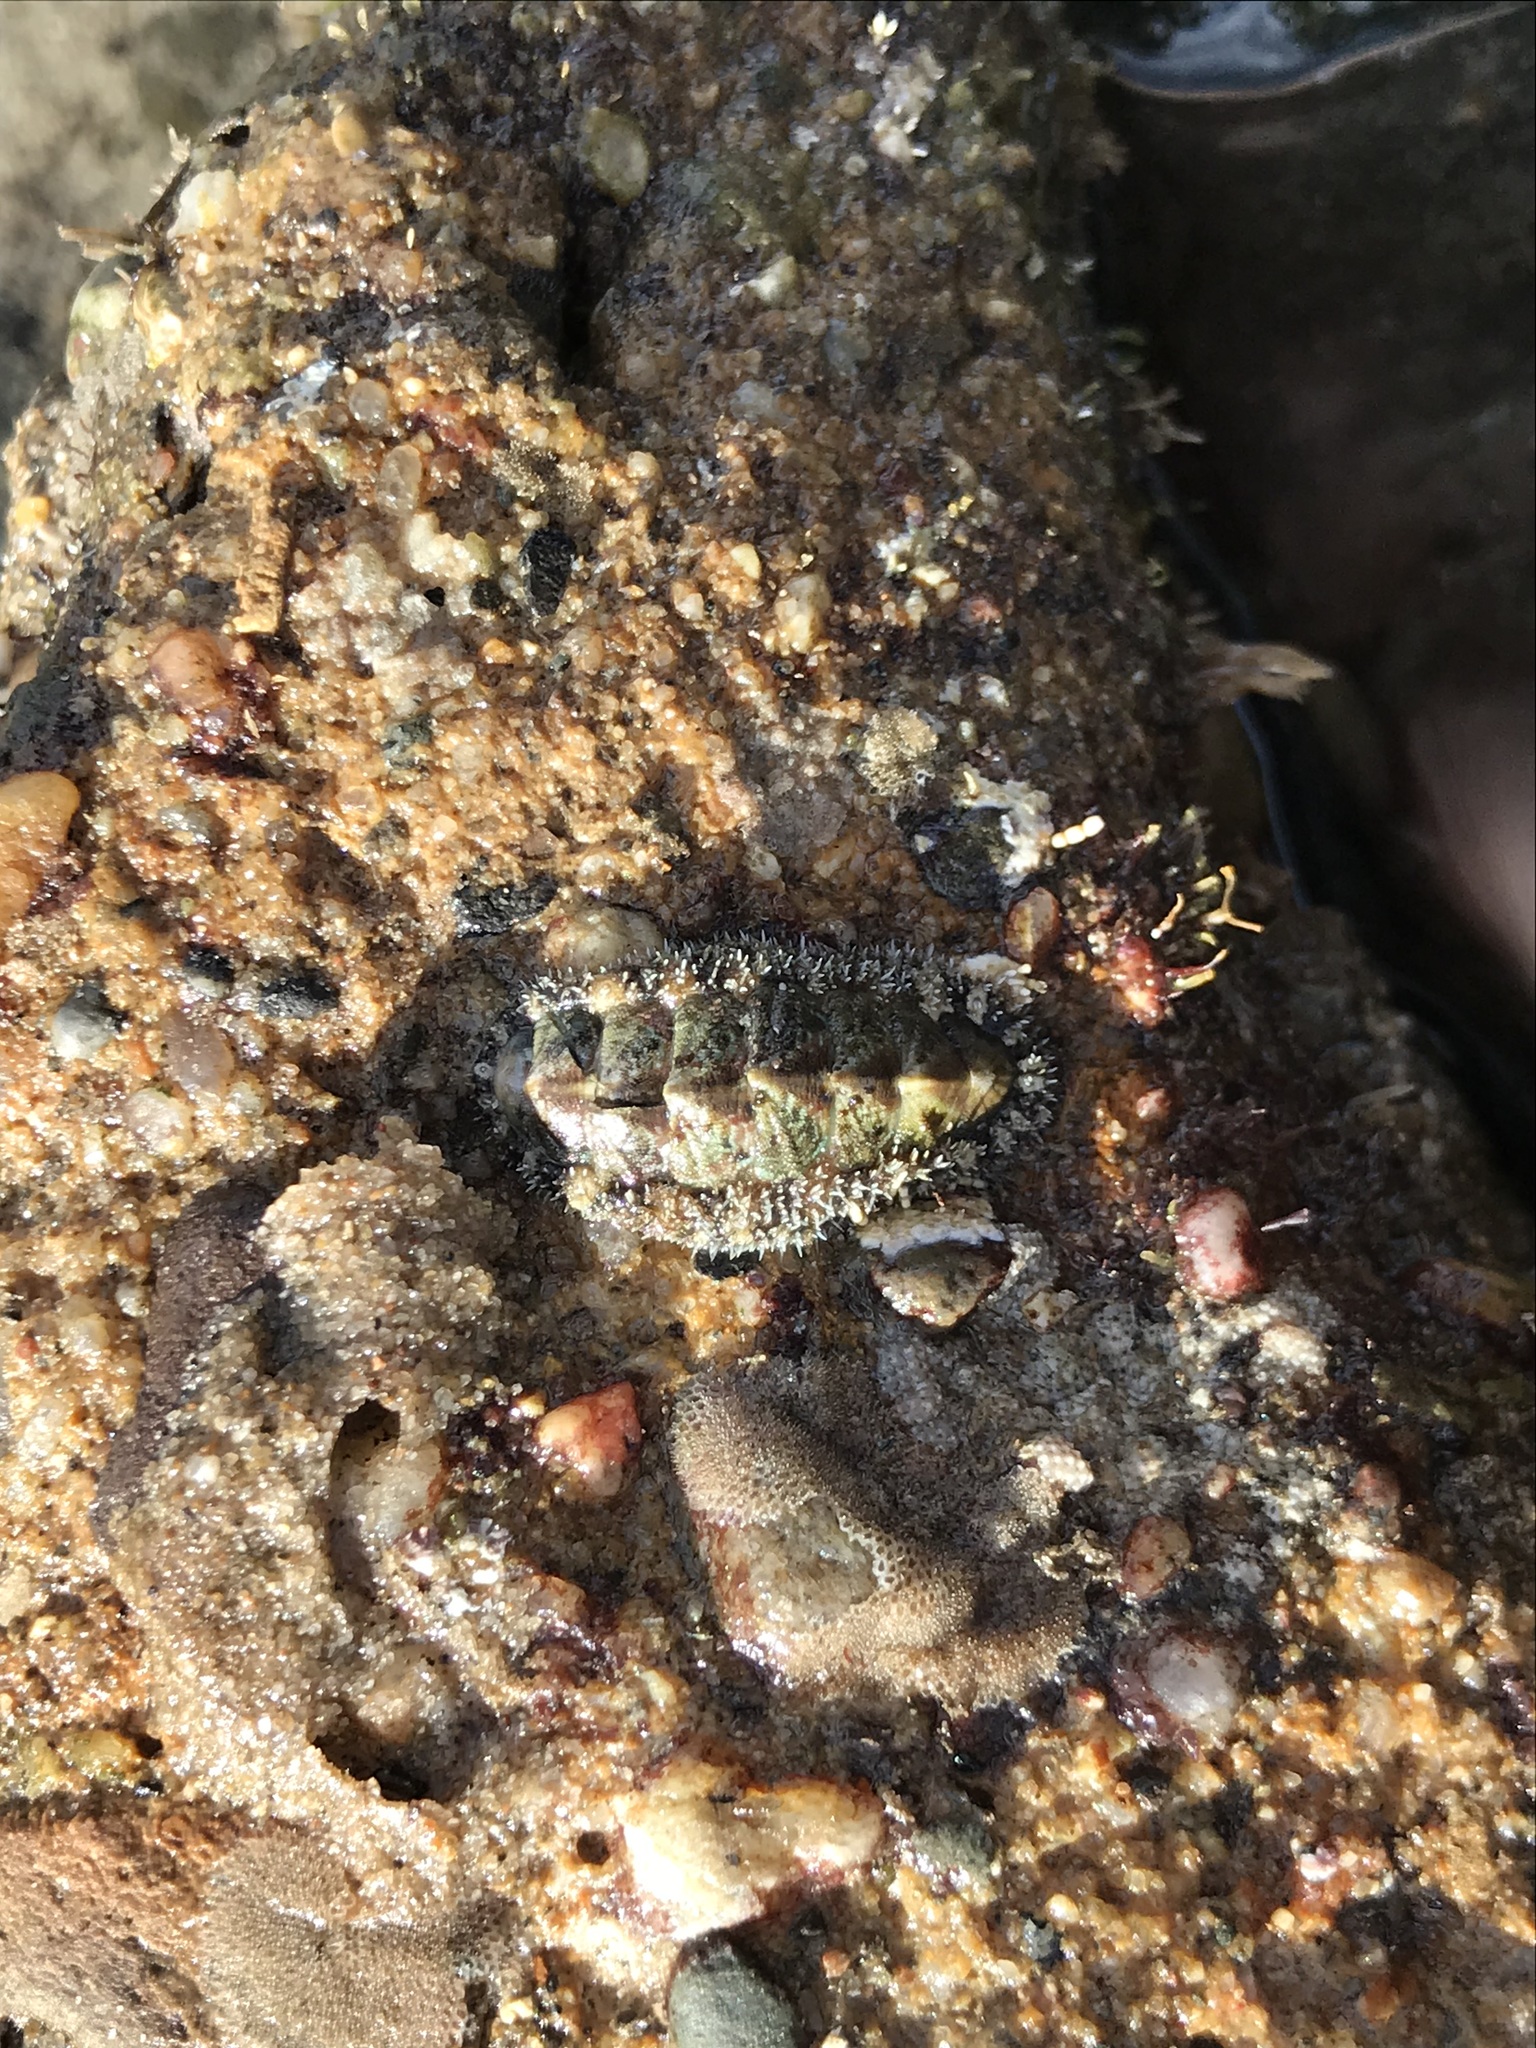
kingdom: Animalia
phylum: Mollusca
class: Polyplacophora
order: Chitonida
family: Tonicellidae
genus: Nuttallina
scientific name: Nuttallina californica
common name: California nuttall chiton
